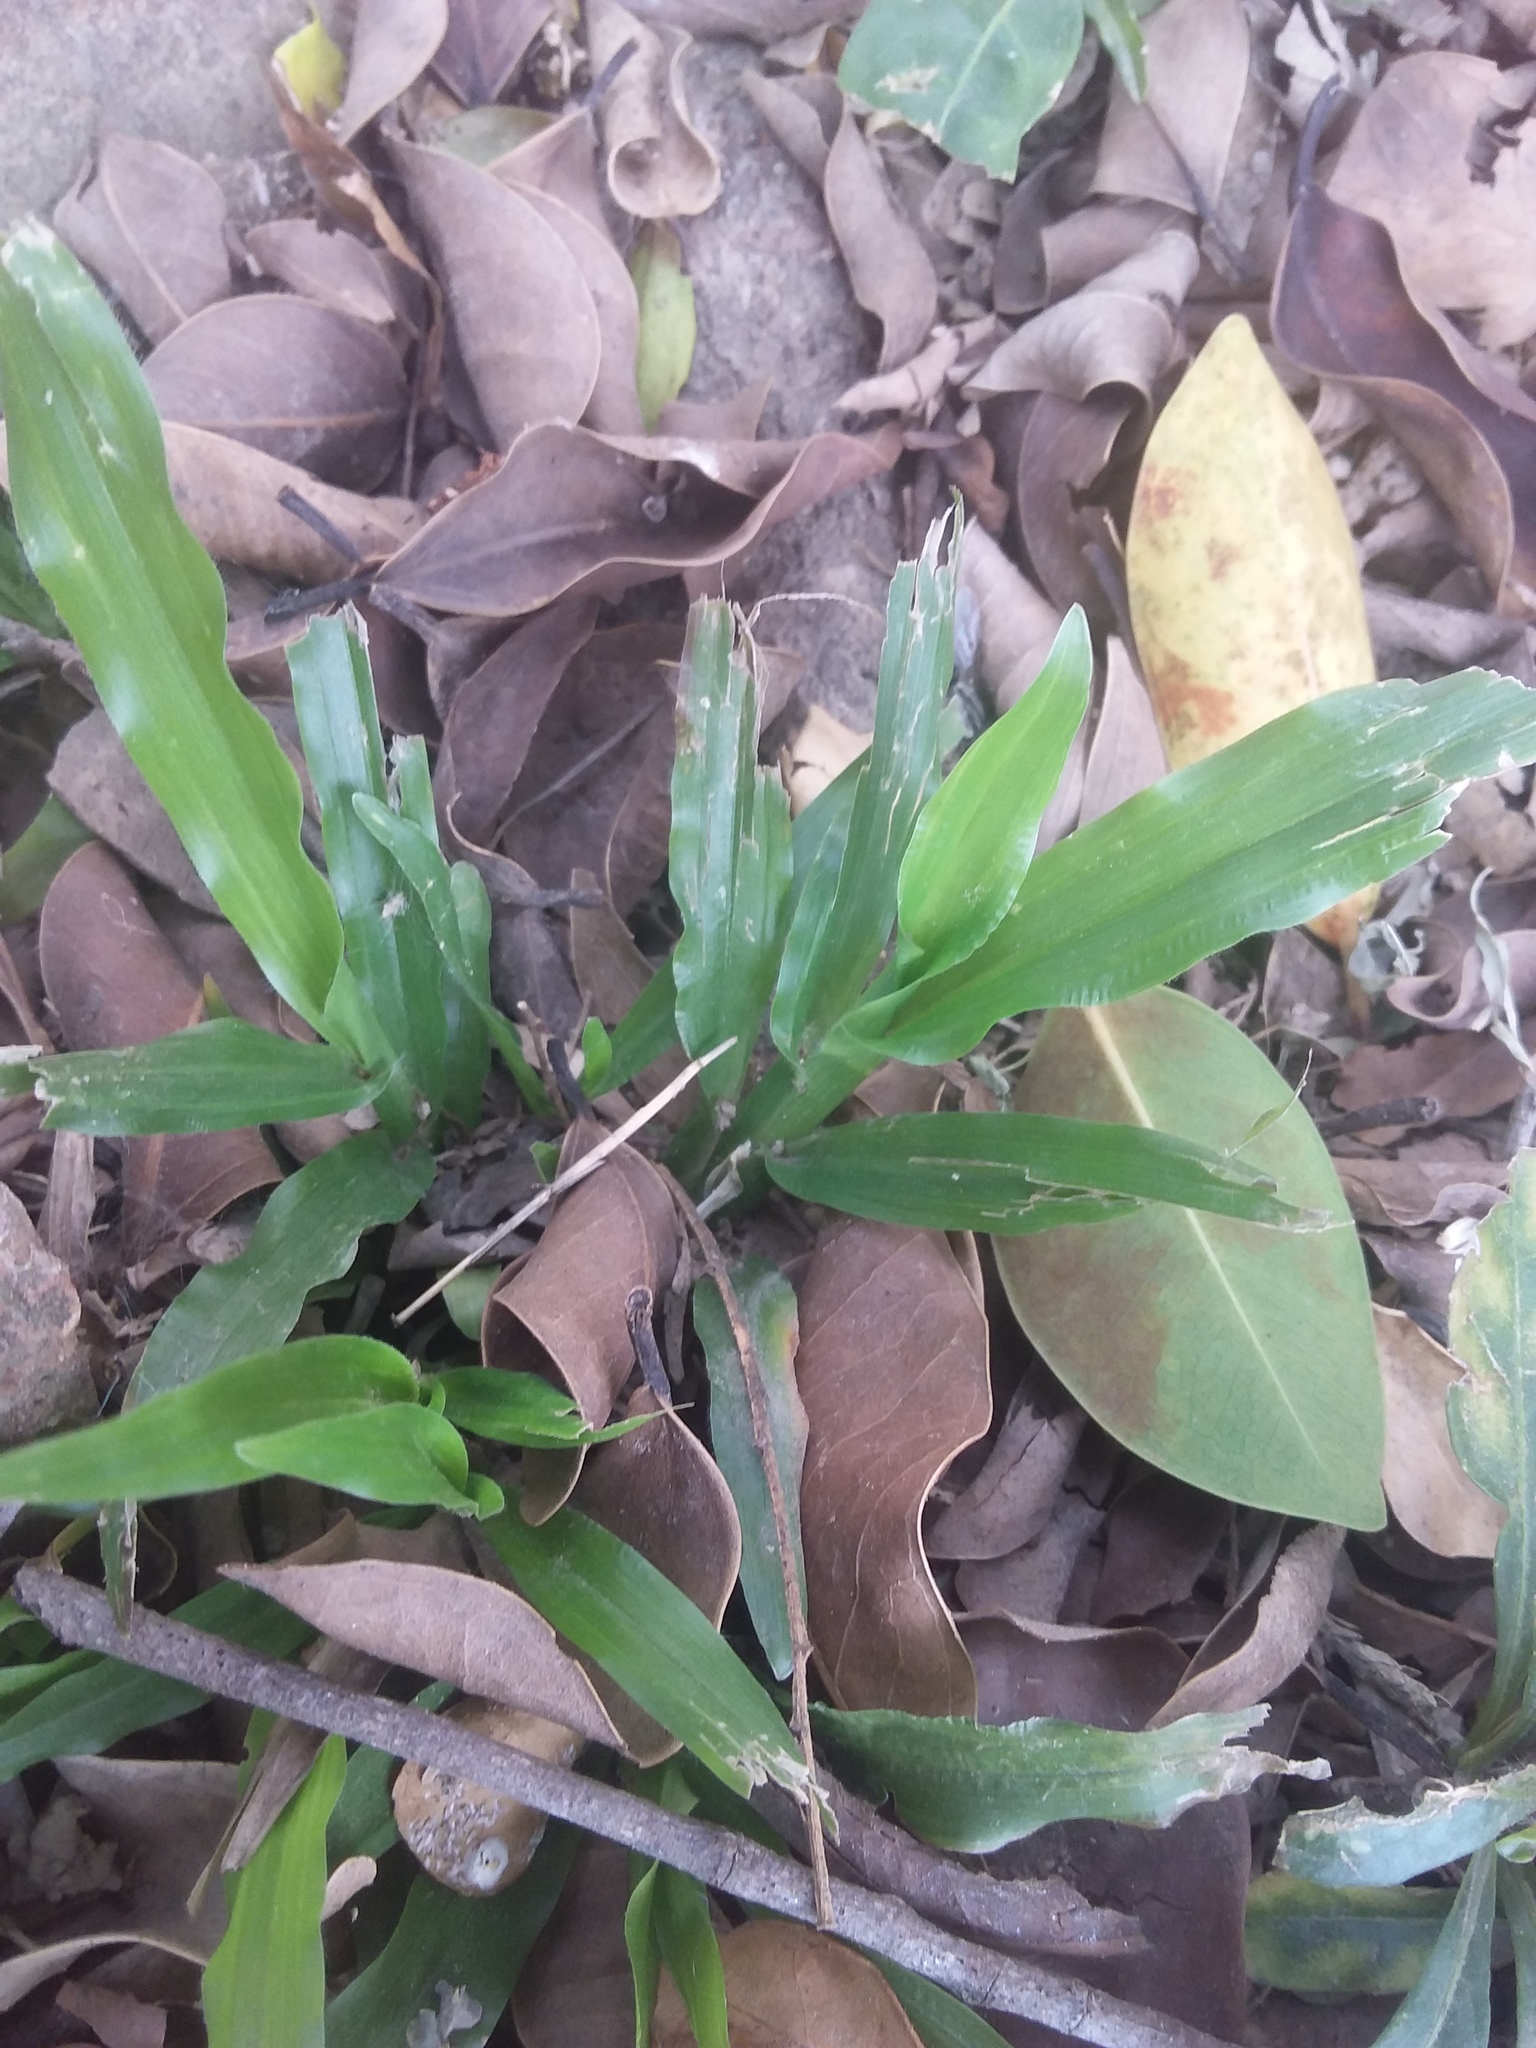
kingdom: Plantae
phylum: Tracheophyta
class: Liliopsida
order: Poales
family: Poaceae
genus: Axonopus
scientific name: Axonopus compressus
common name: American carpet grass
